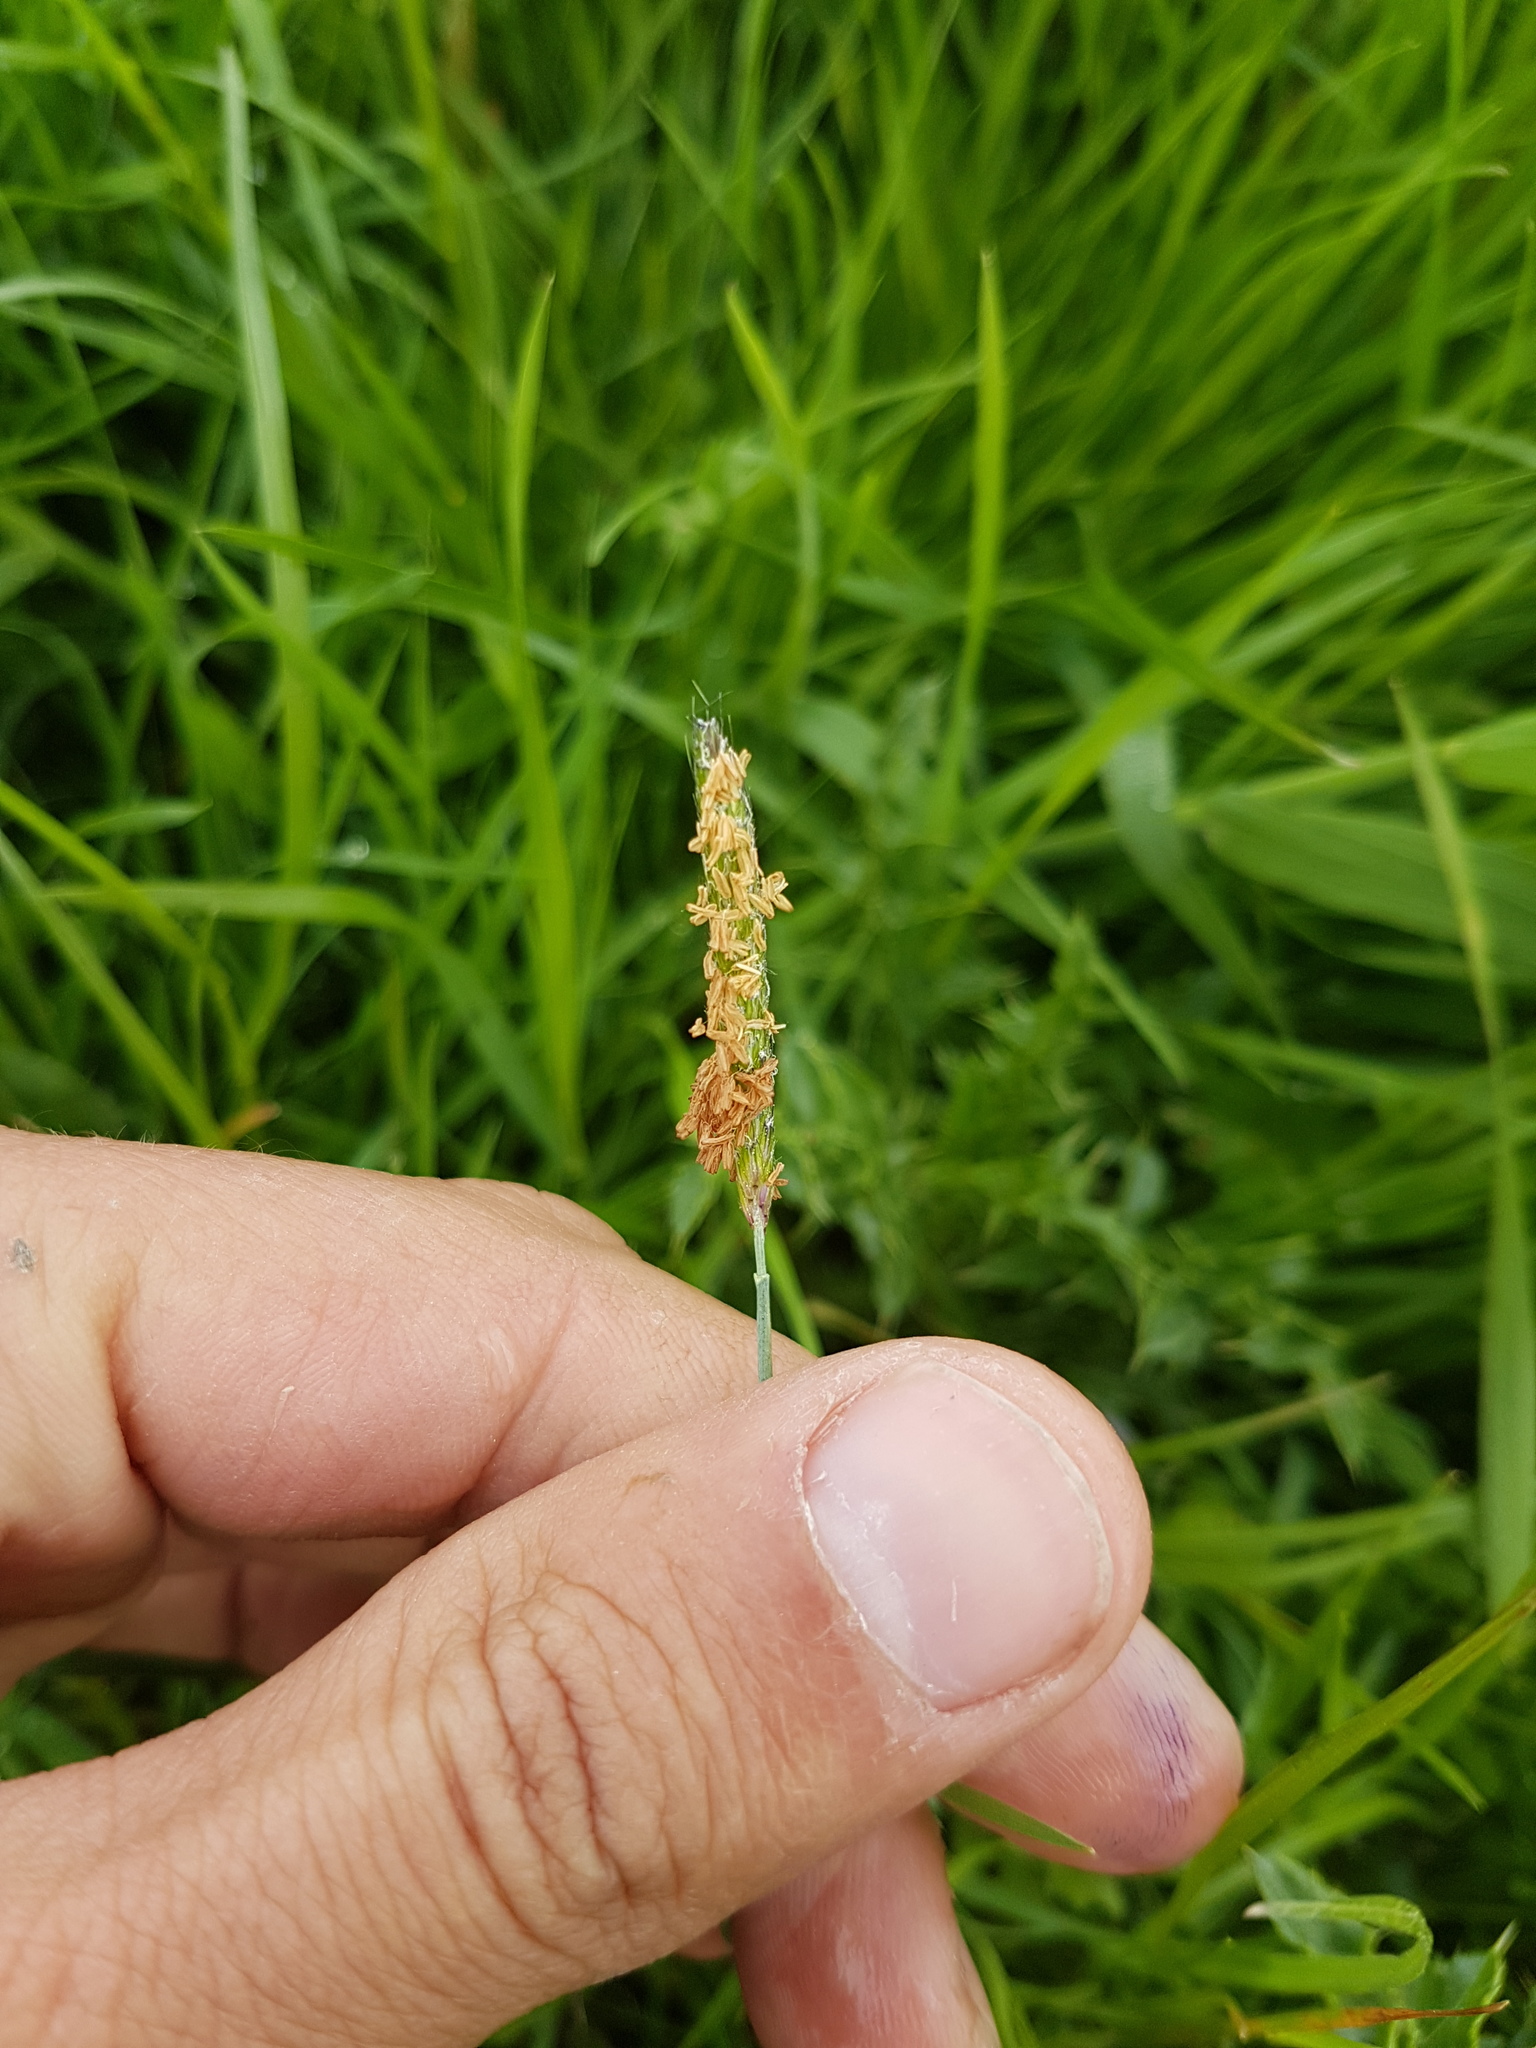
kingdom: Plantae
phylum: Tracheophyta
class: Liliopsida
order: Poales
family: Poaceae
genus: Alopecurus
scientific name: Alopecurus geniculatus
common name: Water foxtail
